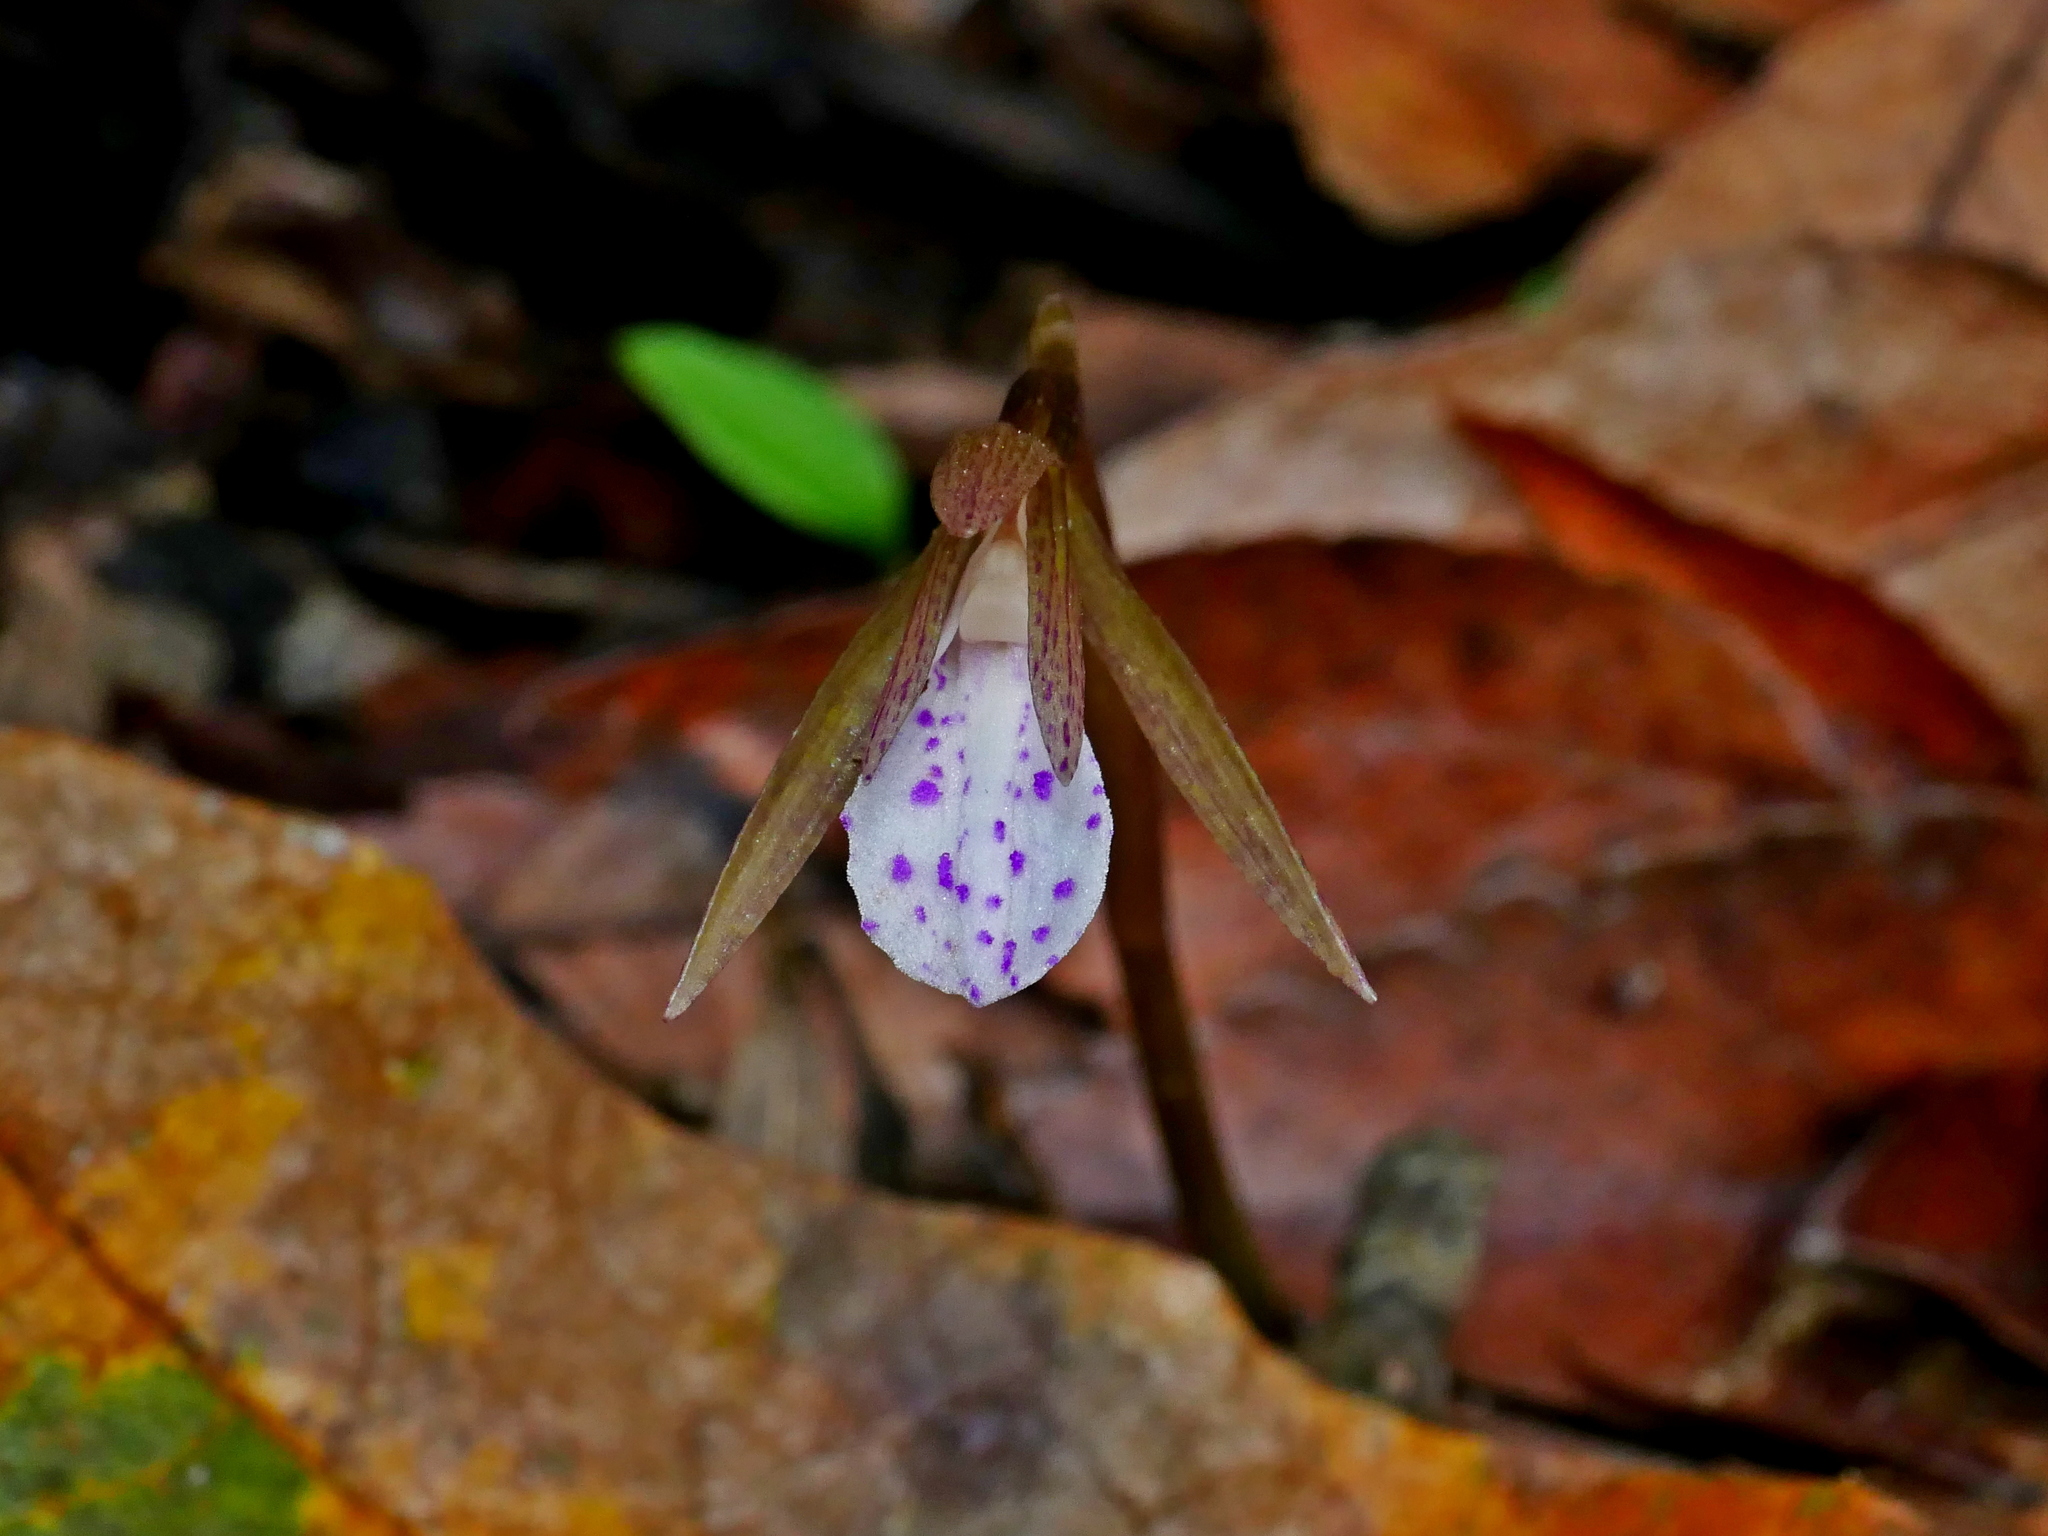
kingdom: Plantae
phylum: Tracheophyta
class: Liliopsida
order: Asparagales
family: Orchidaceae
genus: Nervilia
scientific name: Nervilia taiwaniana
